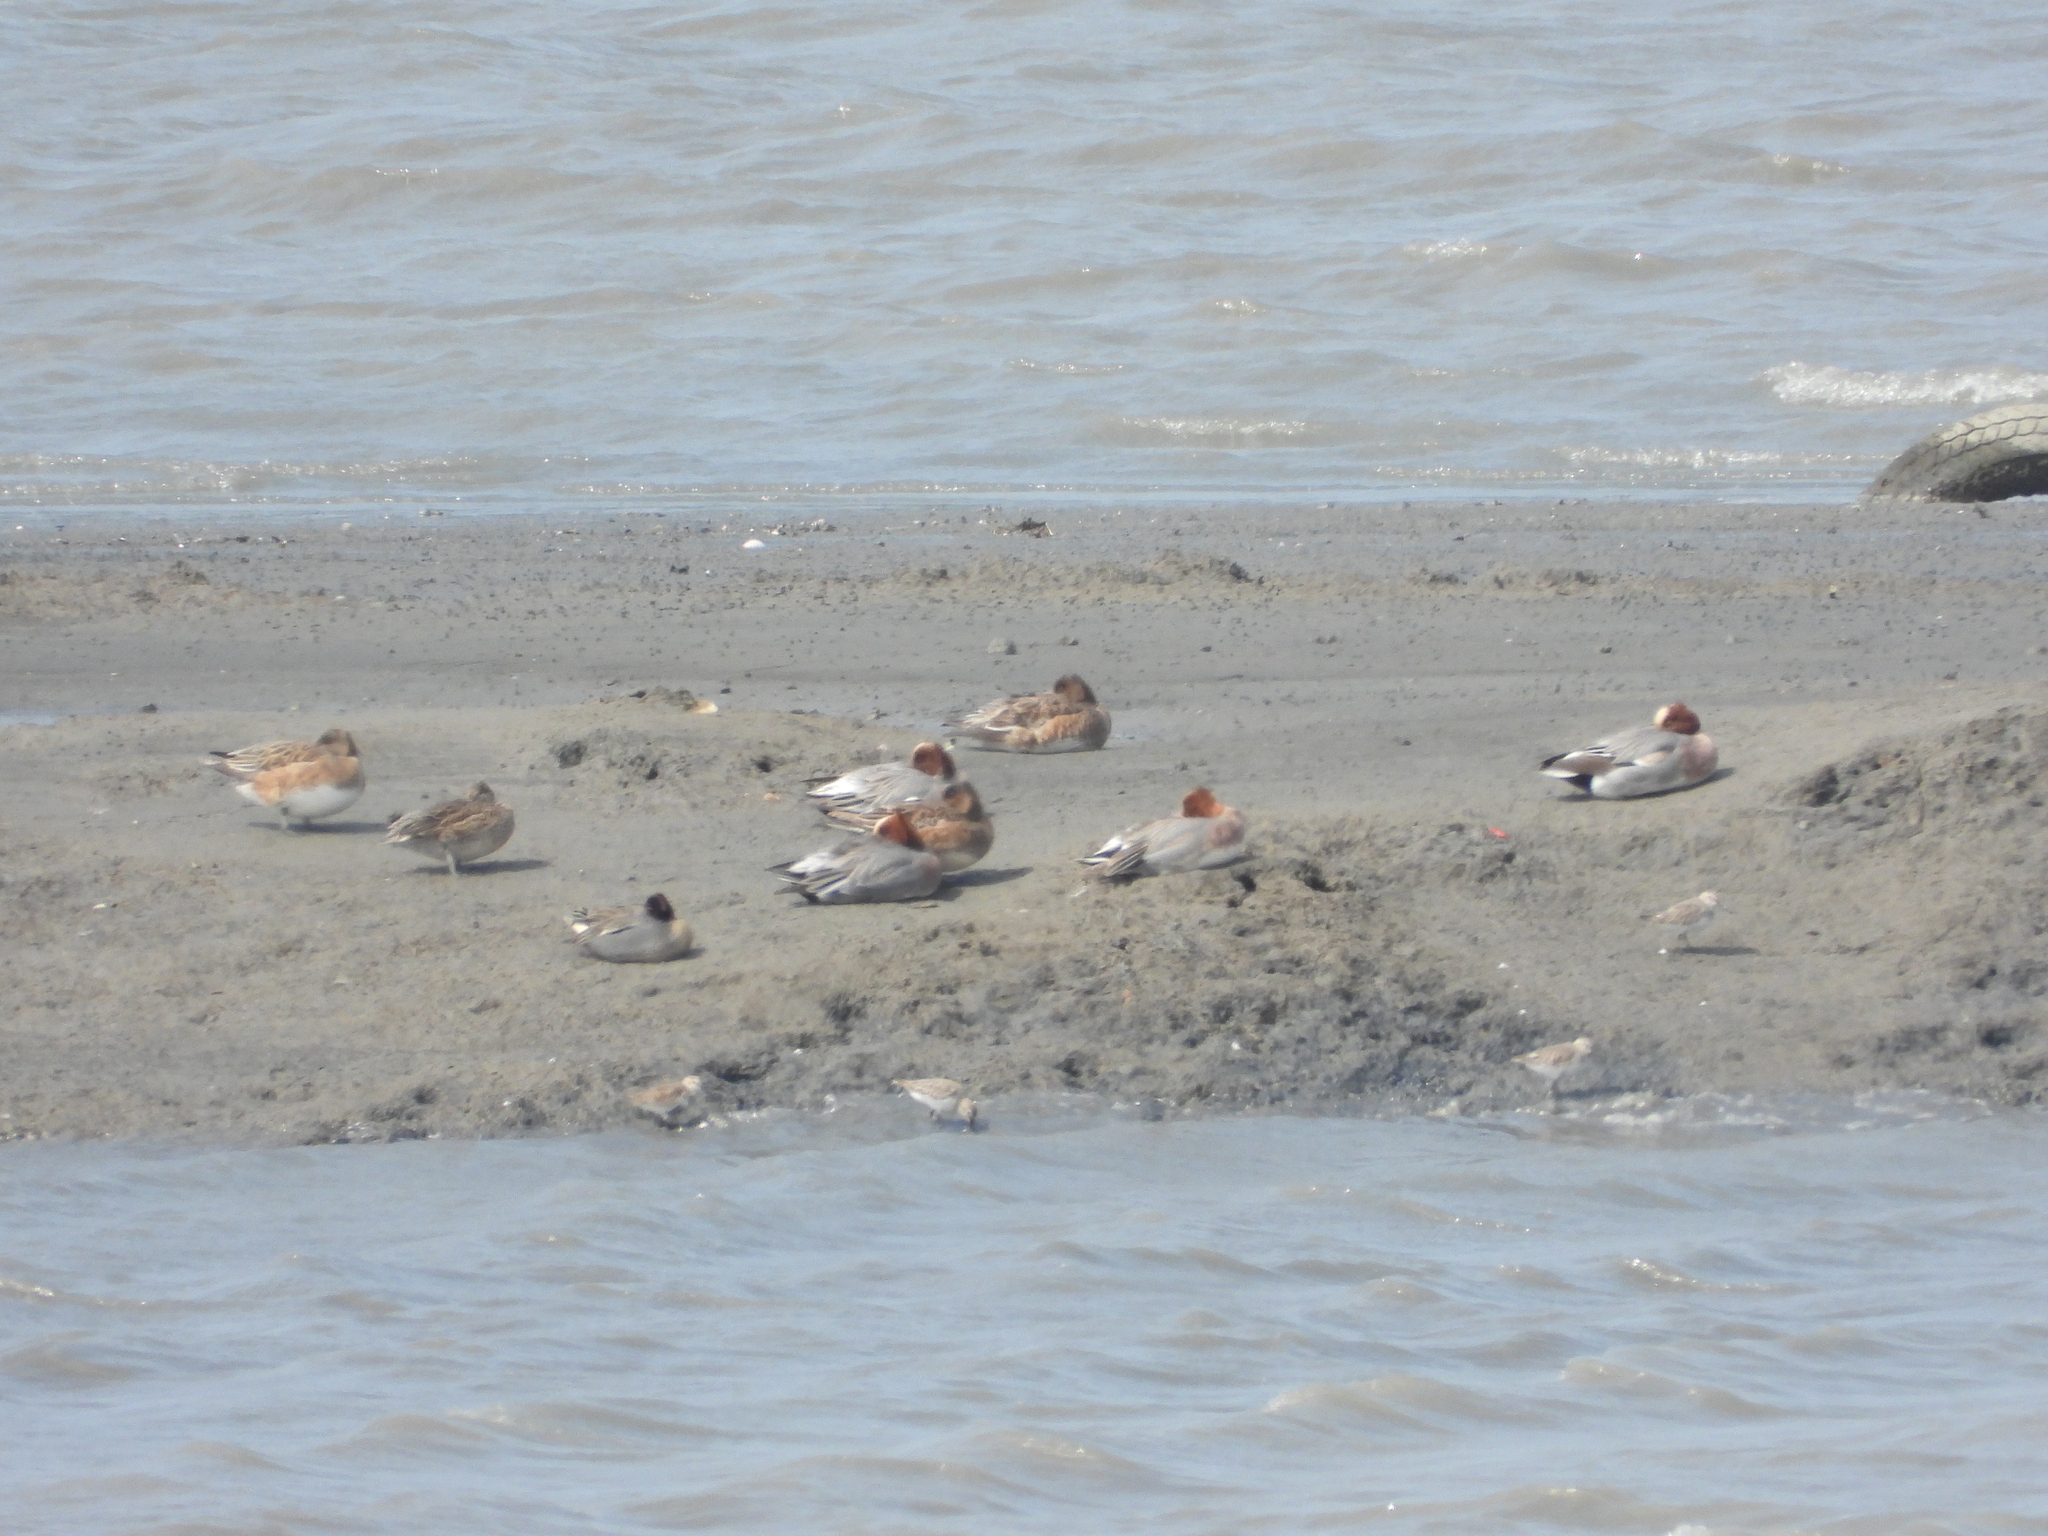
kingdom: Animalia
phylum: Chordata
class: Aves
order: Anseriformes
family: Anatidae
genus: Mareca
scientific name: Mareca penelope
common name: Eurasian wigeon
